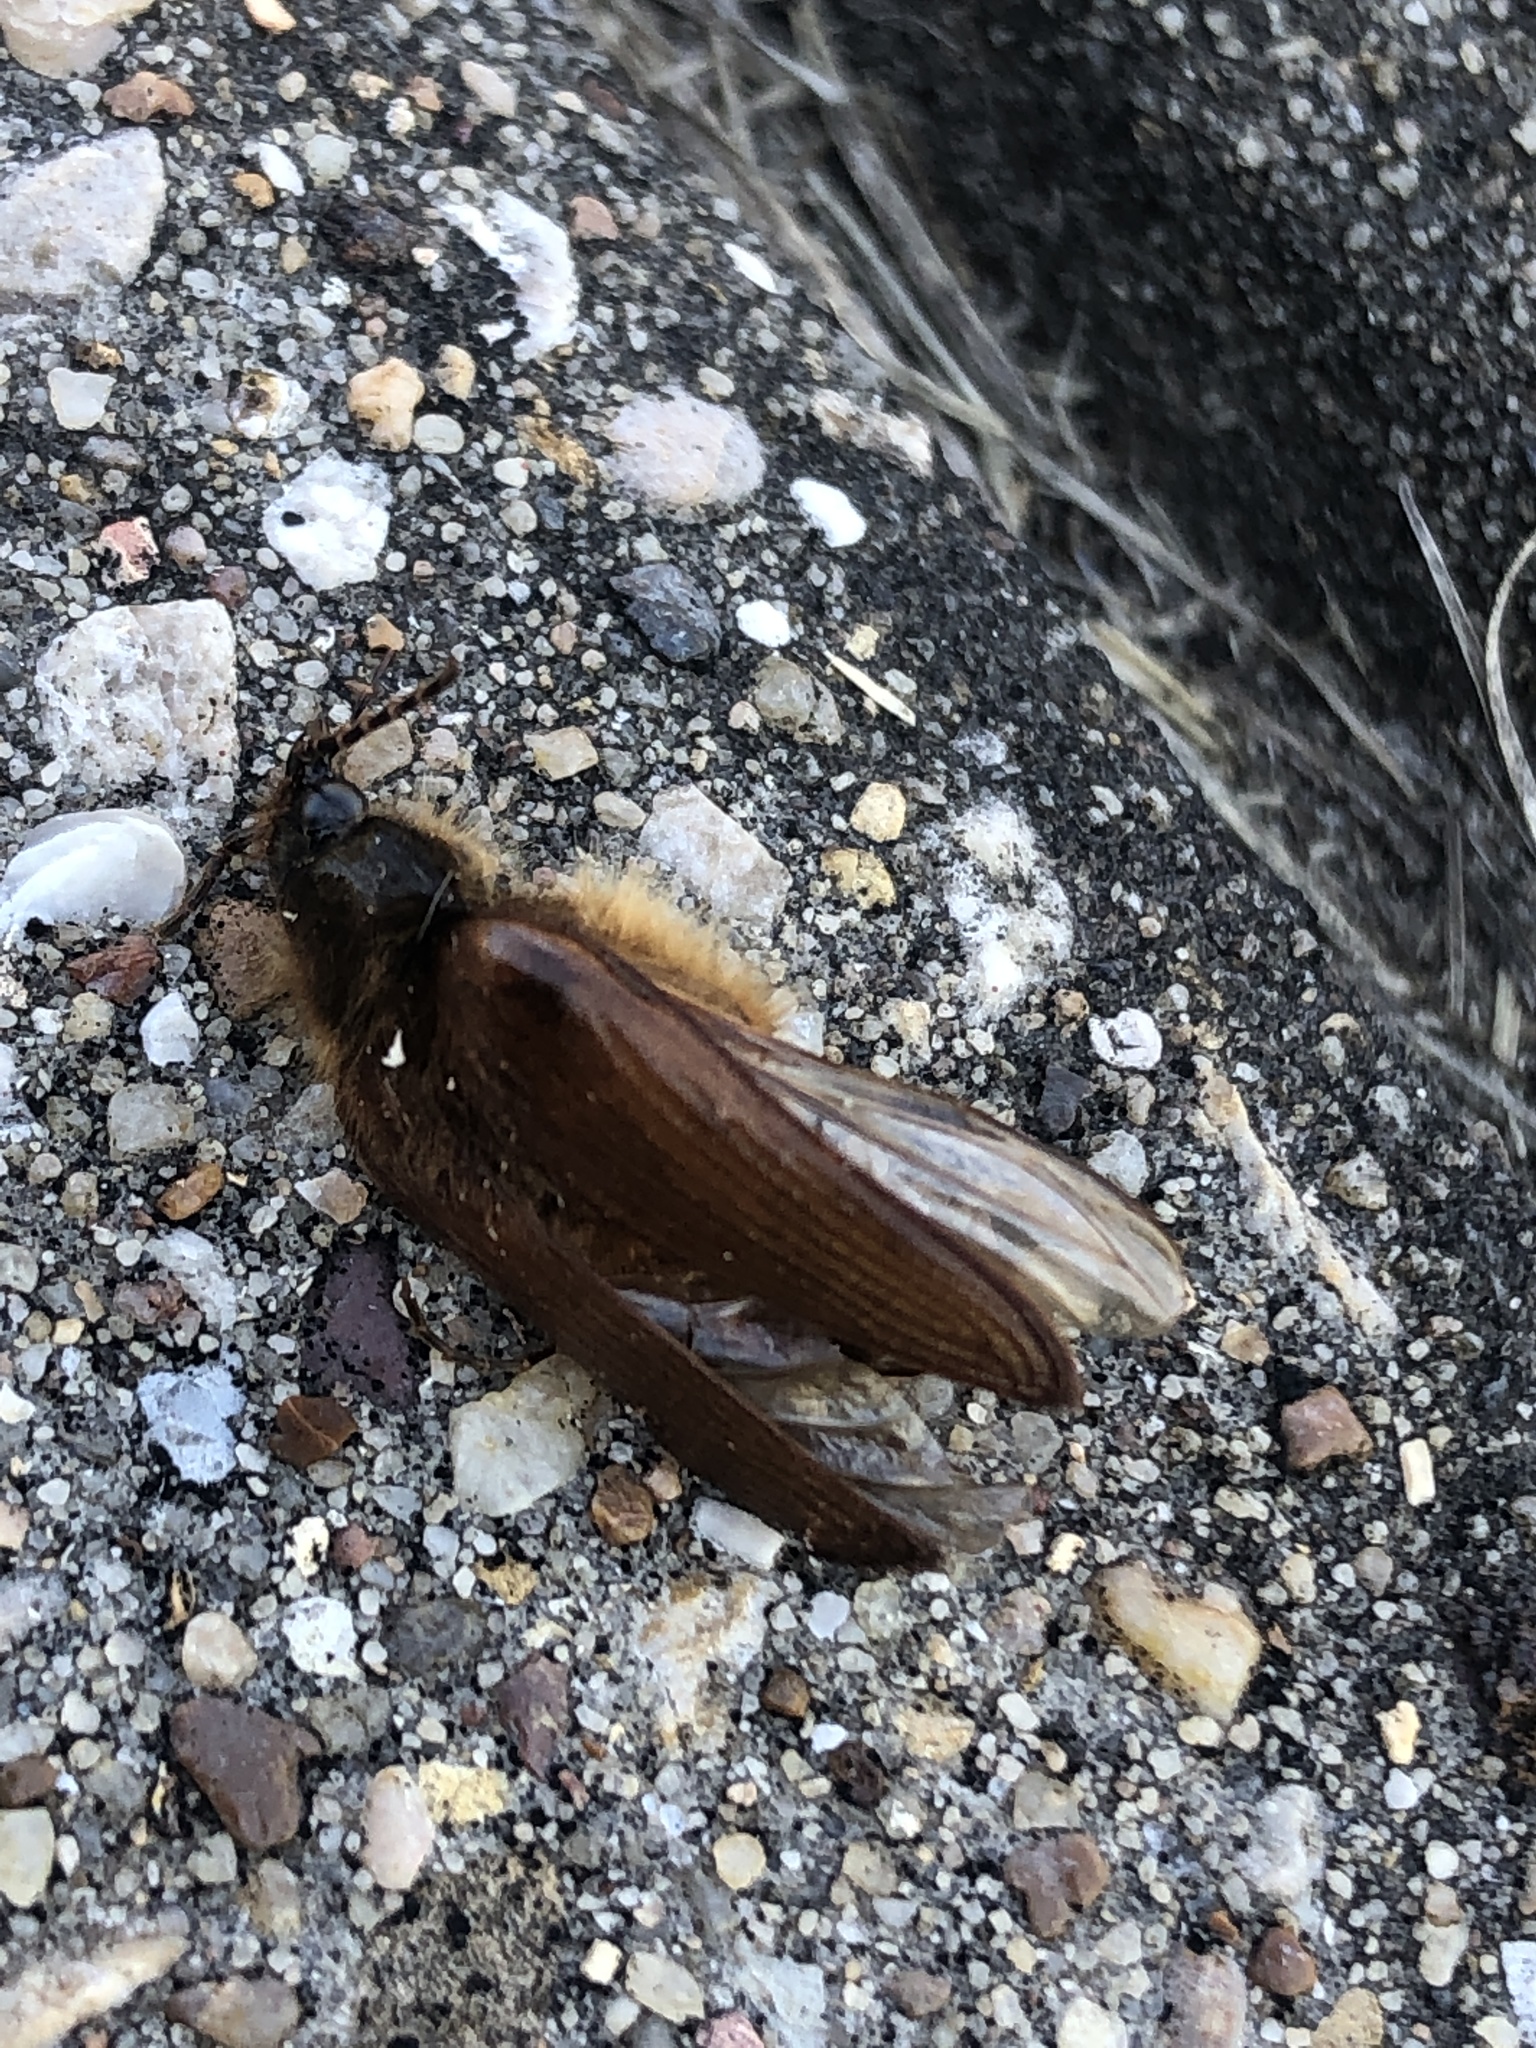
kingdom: Animalia
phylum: Arthropoda
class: Insecta
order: Coleoptera
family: Elateridae
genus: Scaptolenus
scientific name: Scaptolenus
